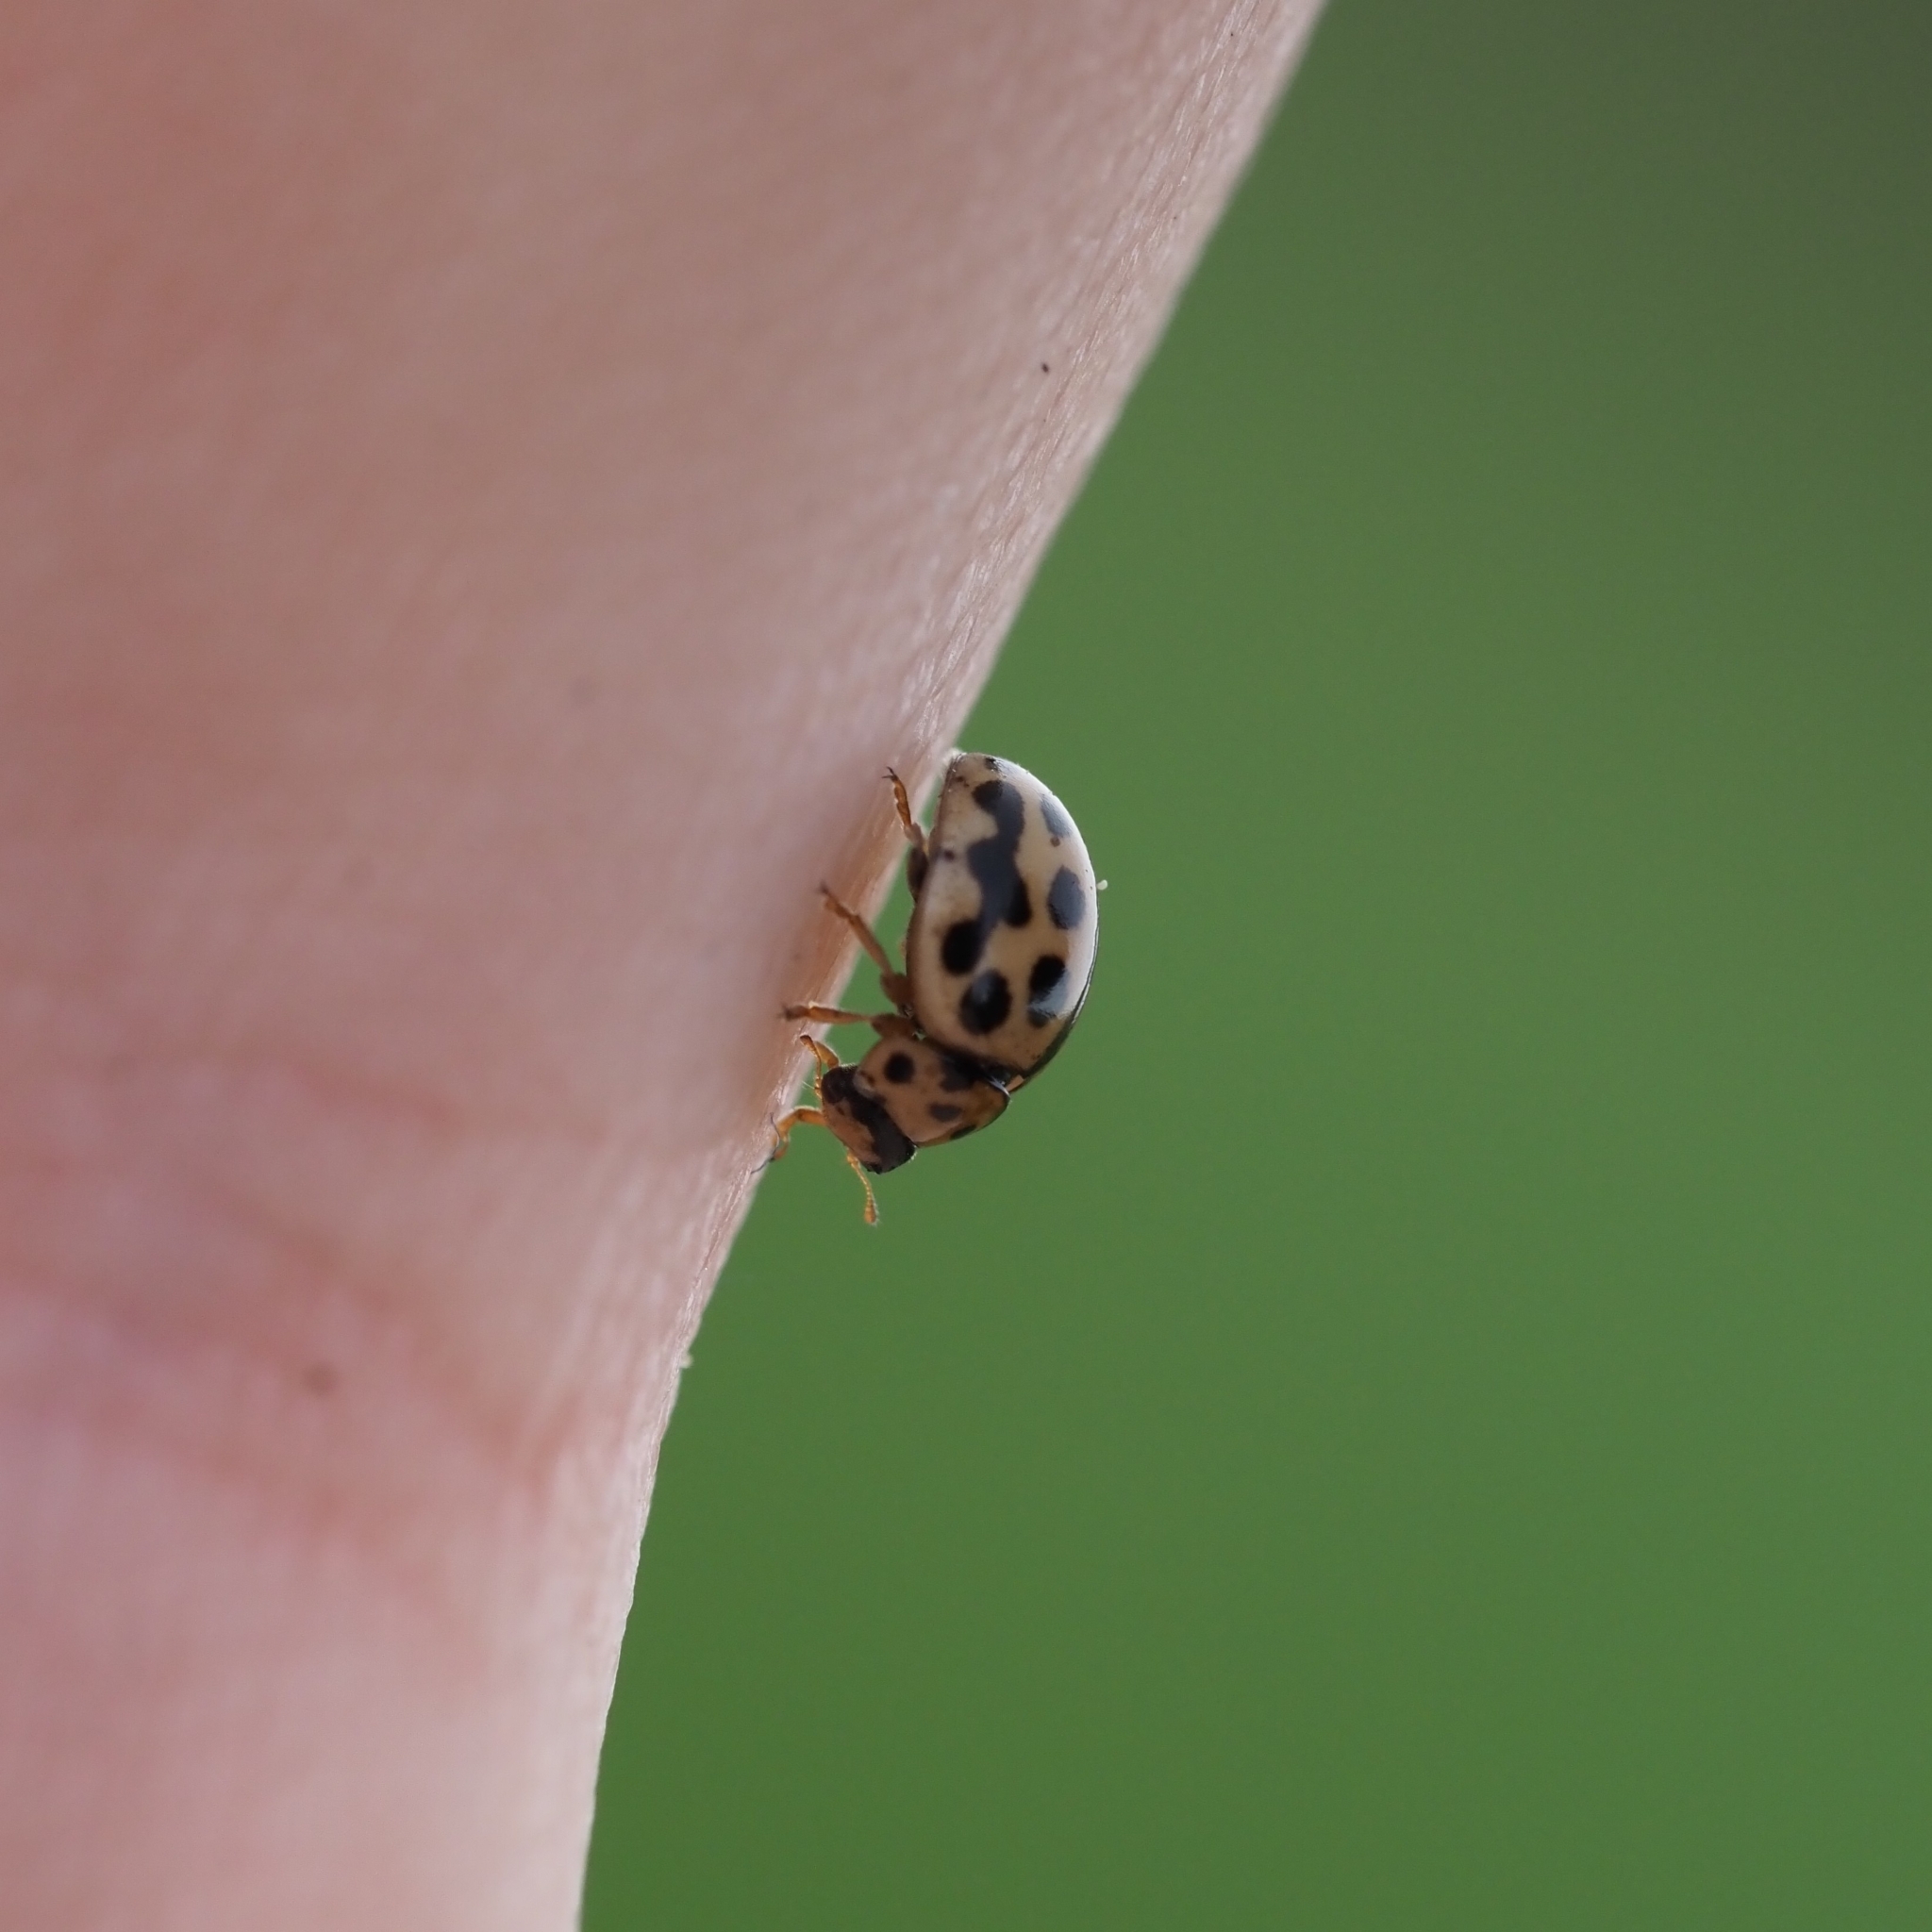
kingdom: Animalia
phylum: Arthropoda
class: Insecta
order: Coleoptera
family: Coccinellidae
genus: Tytthaspis
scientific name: Tytthaspis sedecimpunctata
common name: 16-spot ladybird
